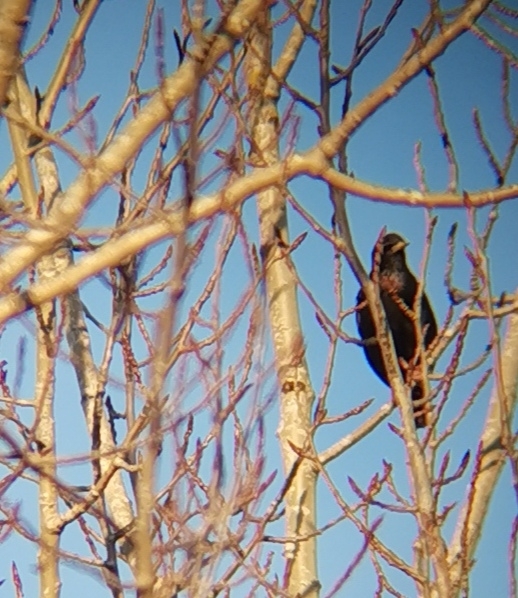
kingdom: Animalia
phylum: Chordata
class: Aves
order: Passeriformes
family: Sturnidae
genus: Sturnus
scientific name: Sturnus vulgaris
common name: Common starling
